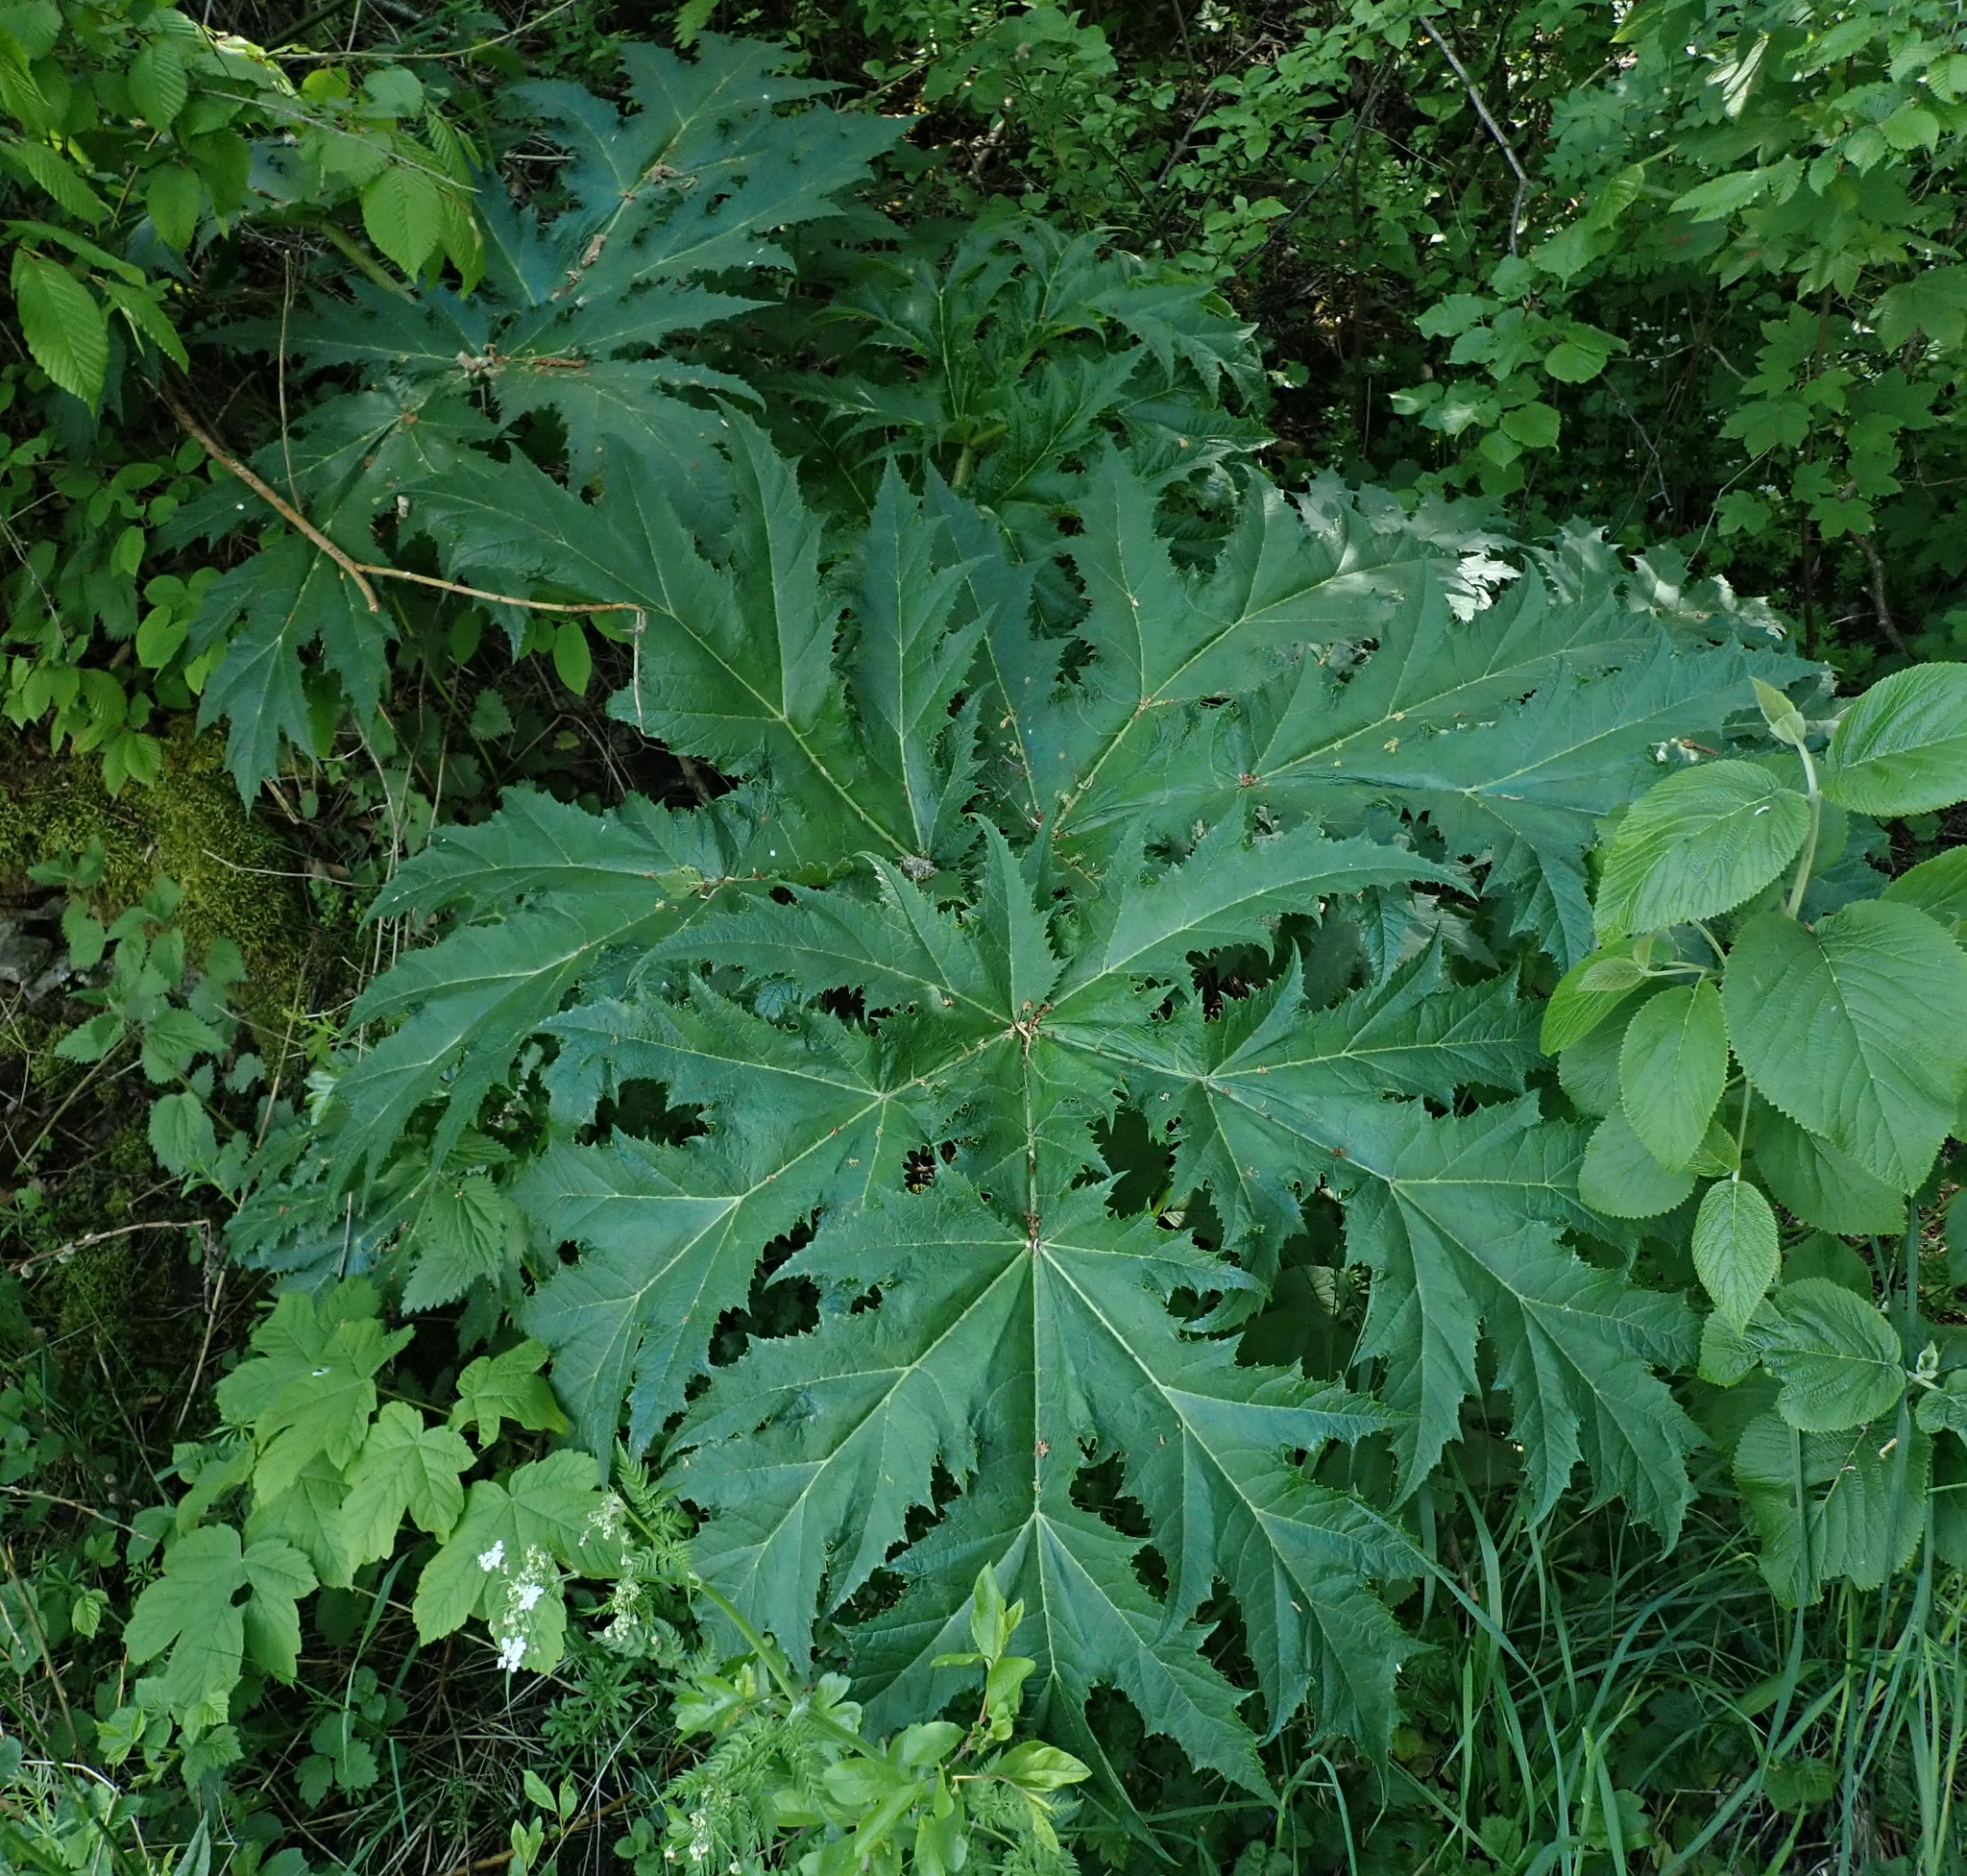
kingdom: Plantae
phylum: Tracheophyta
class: Magnoliopsida
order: Apiales
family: Apiaceae
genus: Heracleum
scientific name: Heracleum mantegazzianum
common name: Giant hogweed
